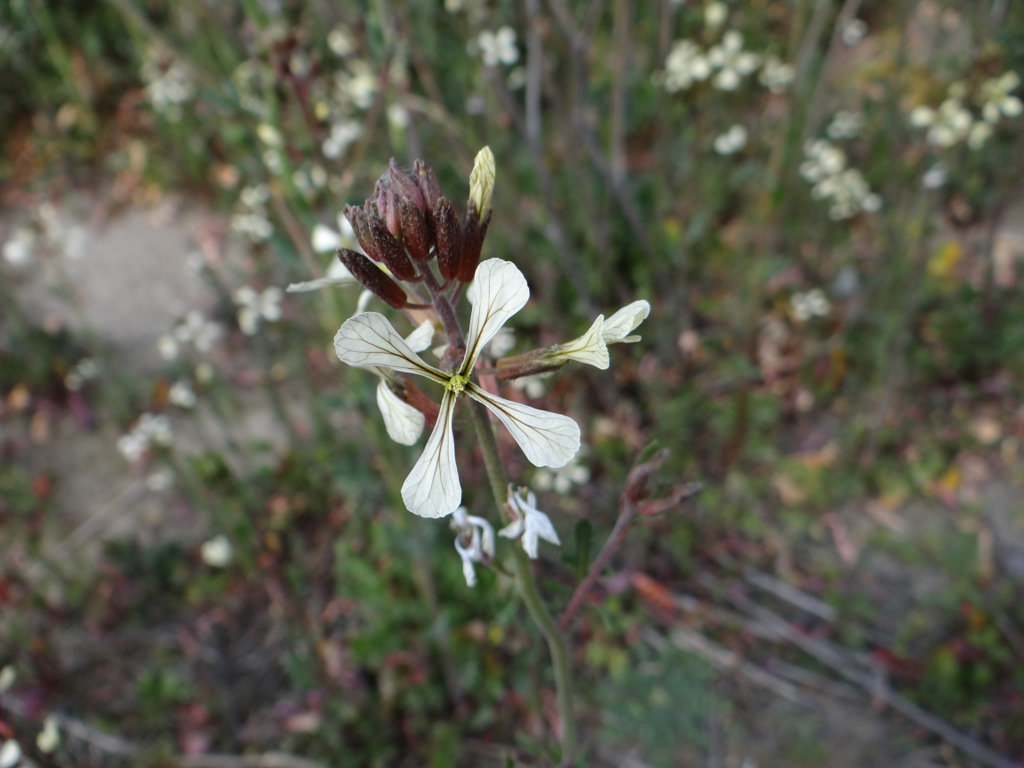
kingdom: Plantae
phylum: Tracheophyta
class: Magnoliopsida
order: Brassicales
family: Brassicaceae
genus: Eruca
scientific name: Eruca vesicaria
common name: Garden rocket
